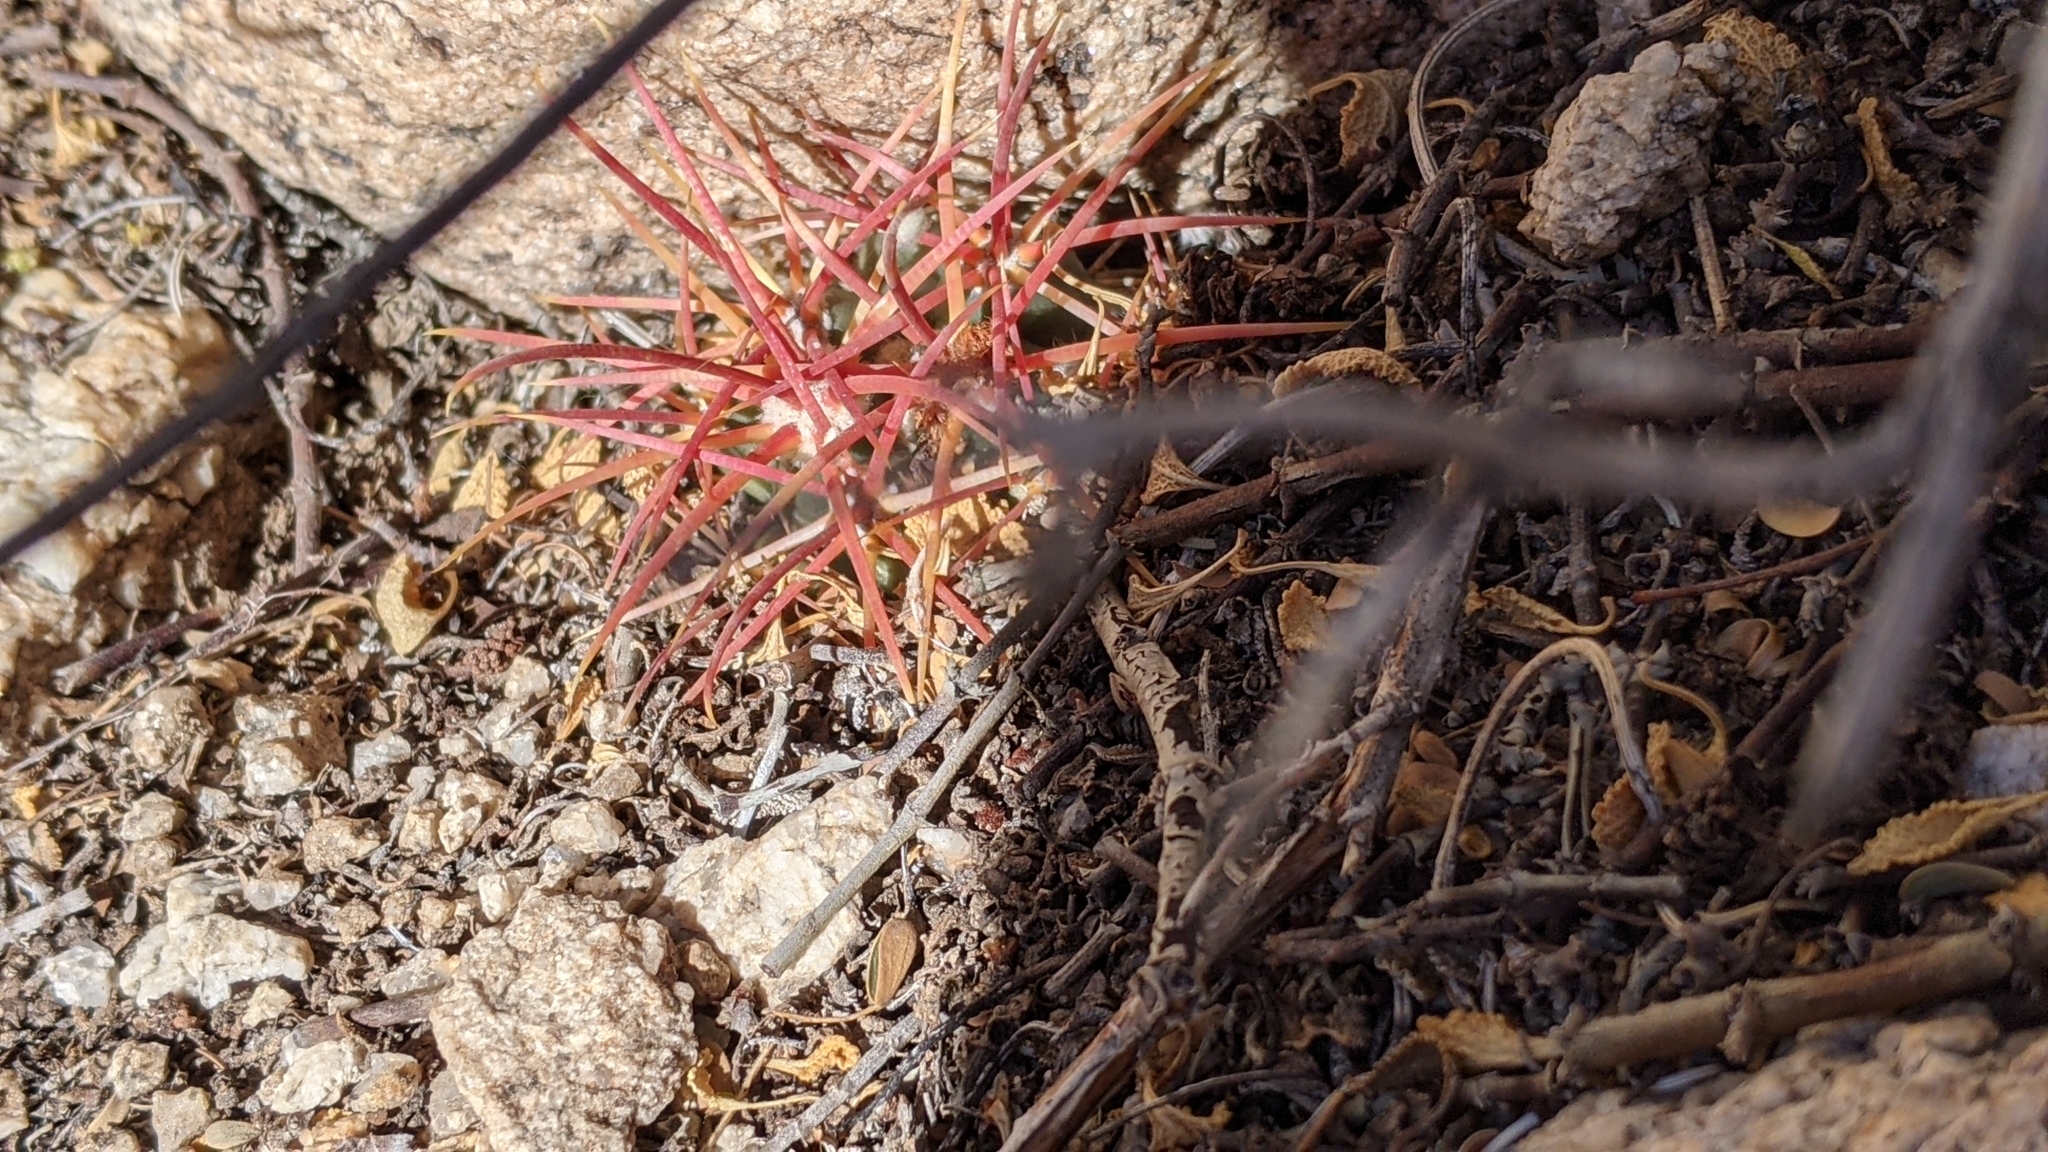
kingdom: Plantae
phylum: Tracheophyta
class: Magnoliopsida
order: Caryophyllales
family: Cactaceae
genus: Ferocactus
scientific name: Ferocactus cylindraceus
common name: California barrel cactus
